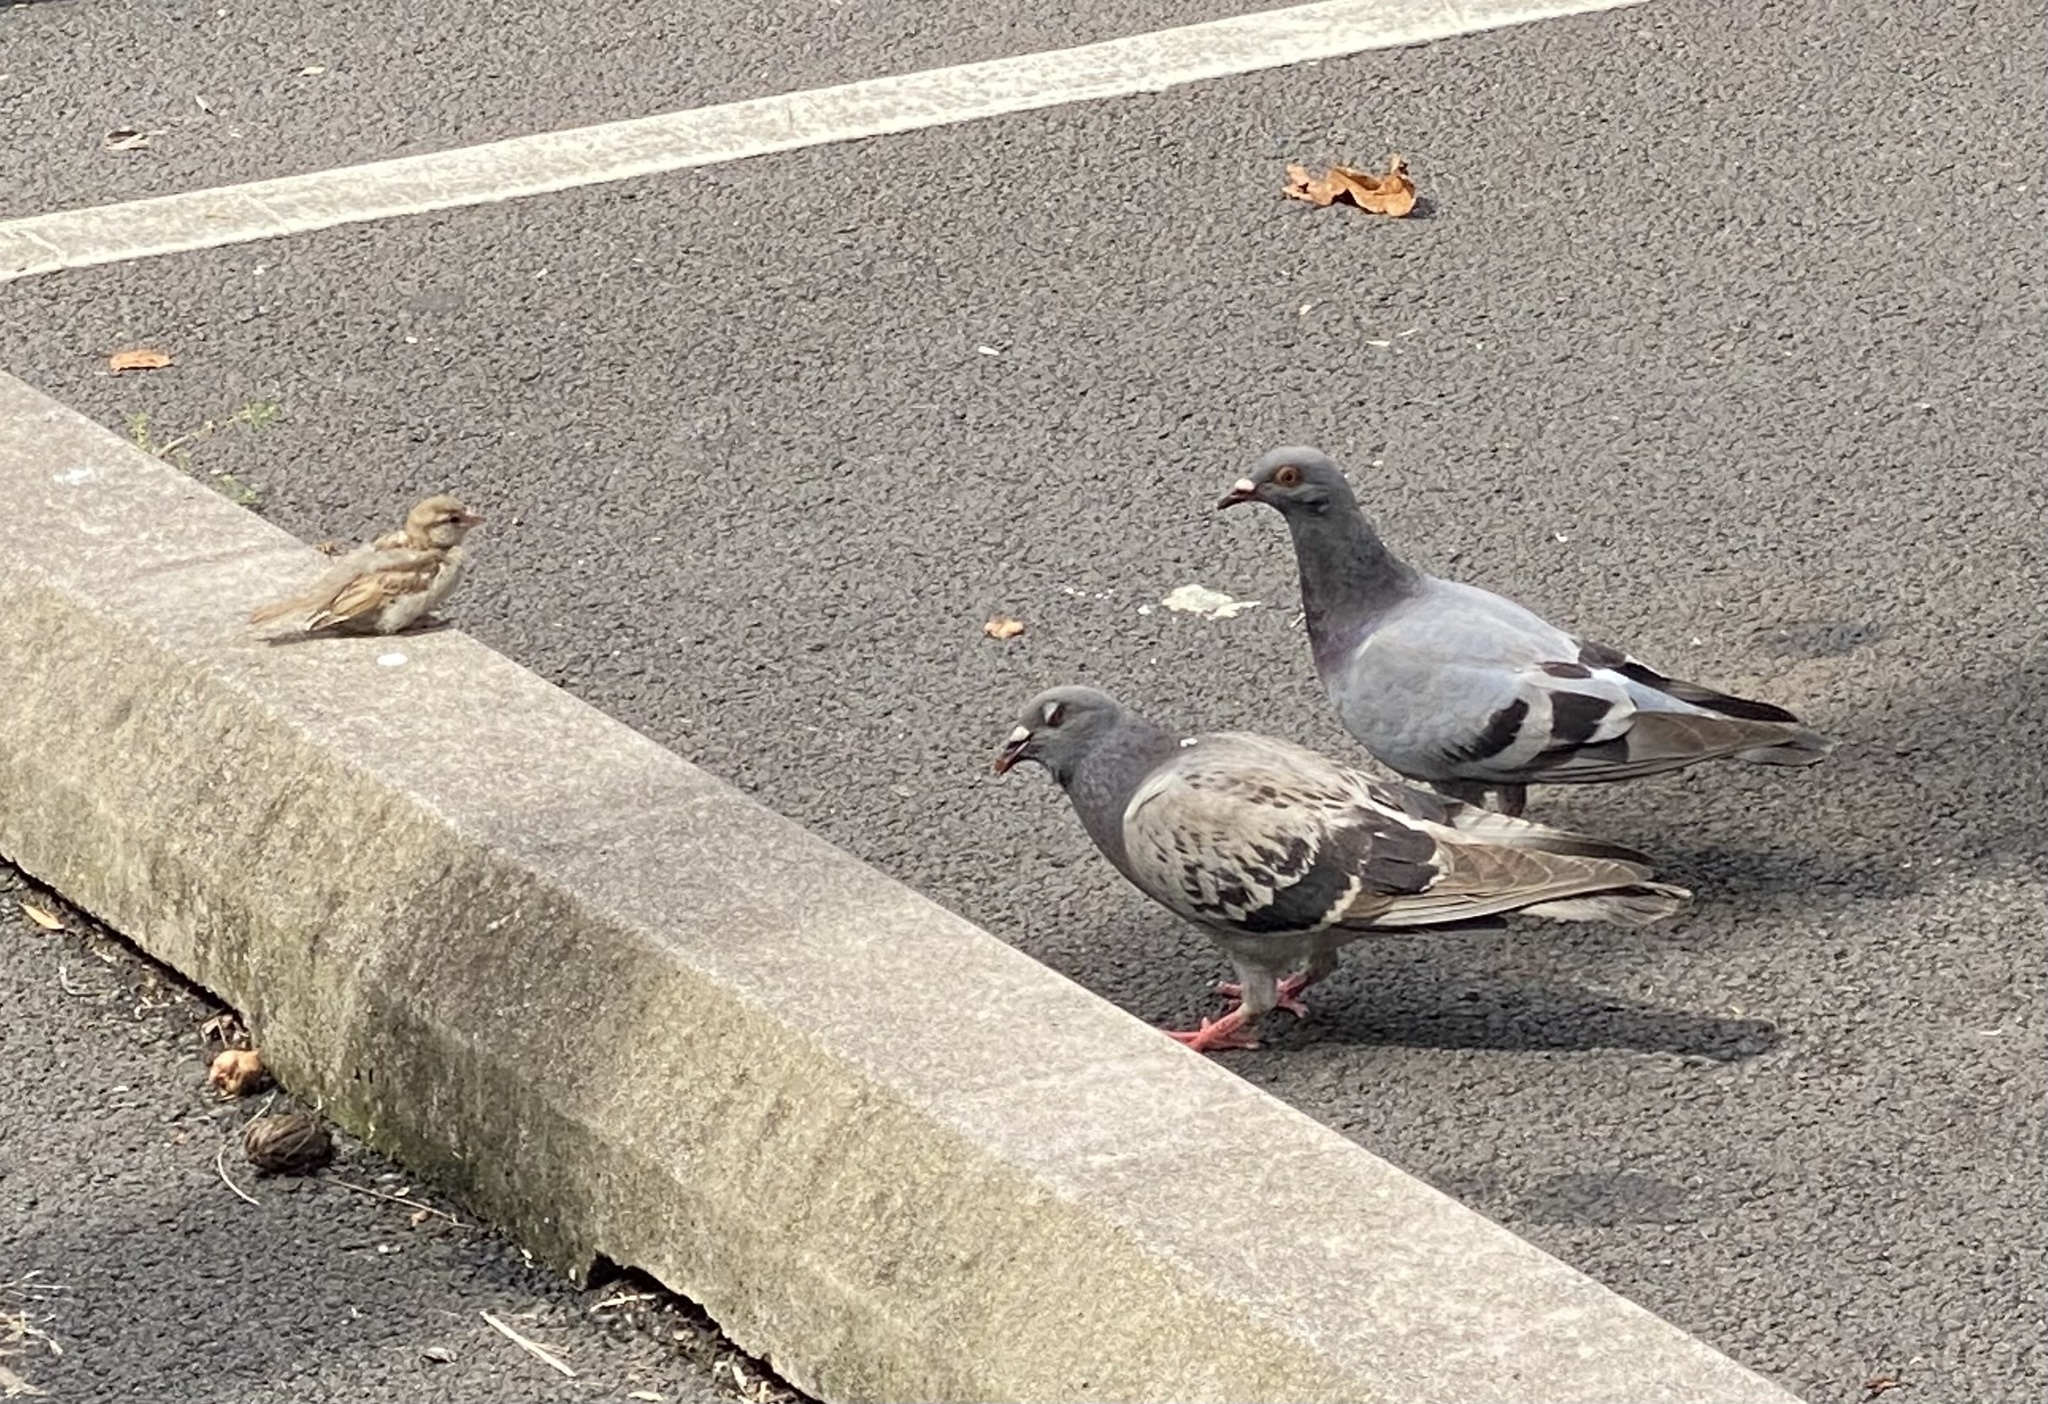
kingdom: Animalia
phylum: Chordata
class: Aves
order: Passeriformes
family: Passeridae
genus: Passer
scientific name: Passer domesticus
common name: House sparrow
